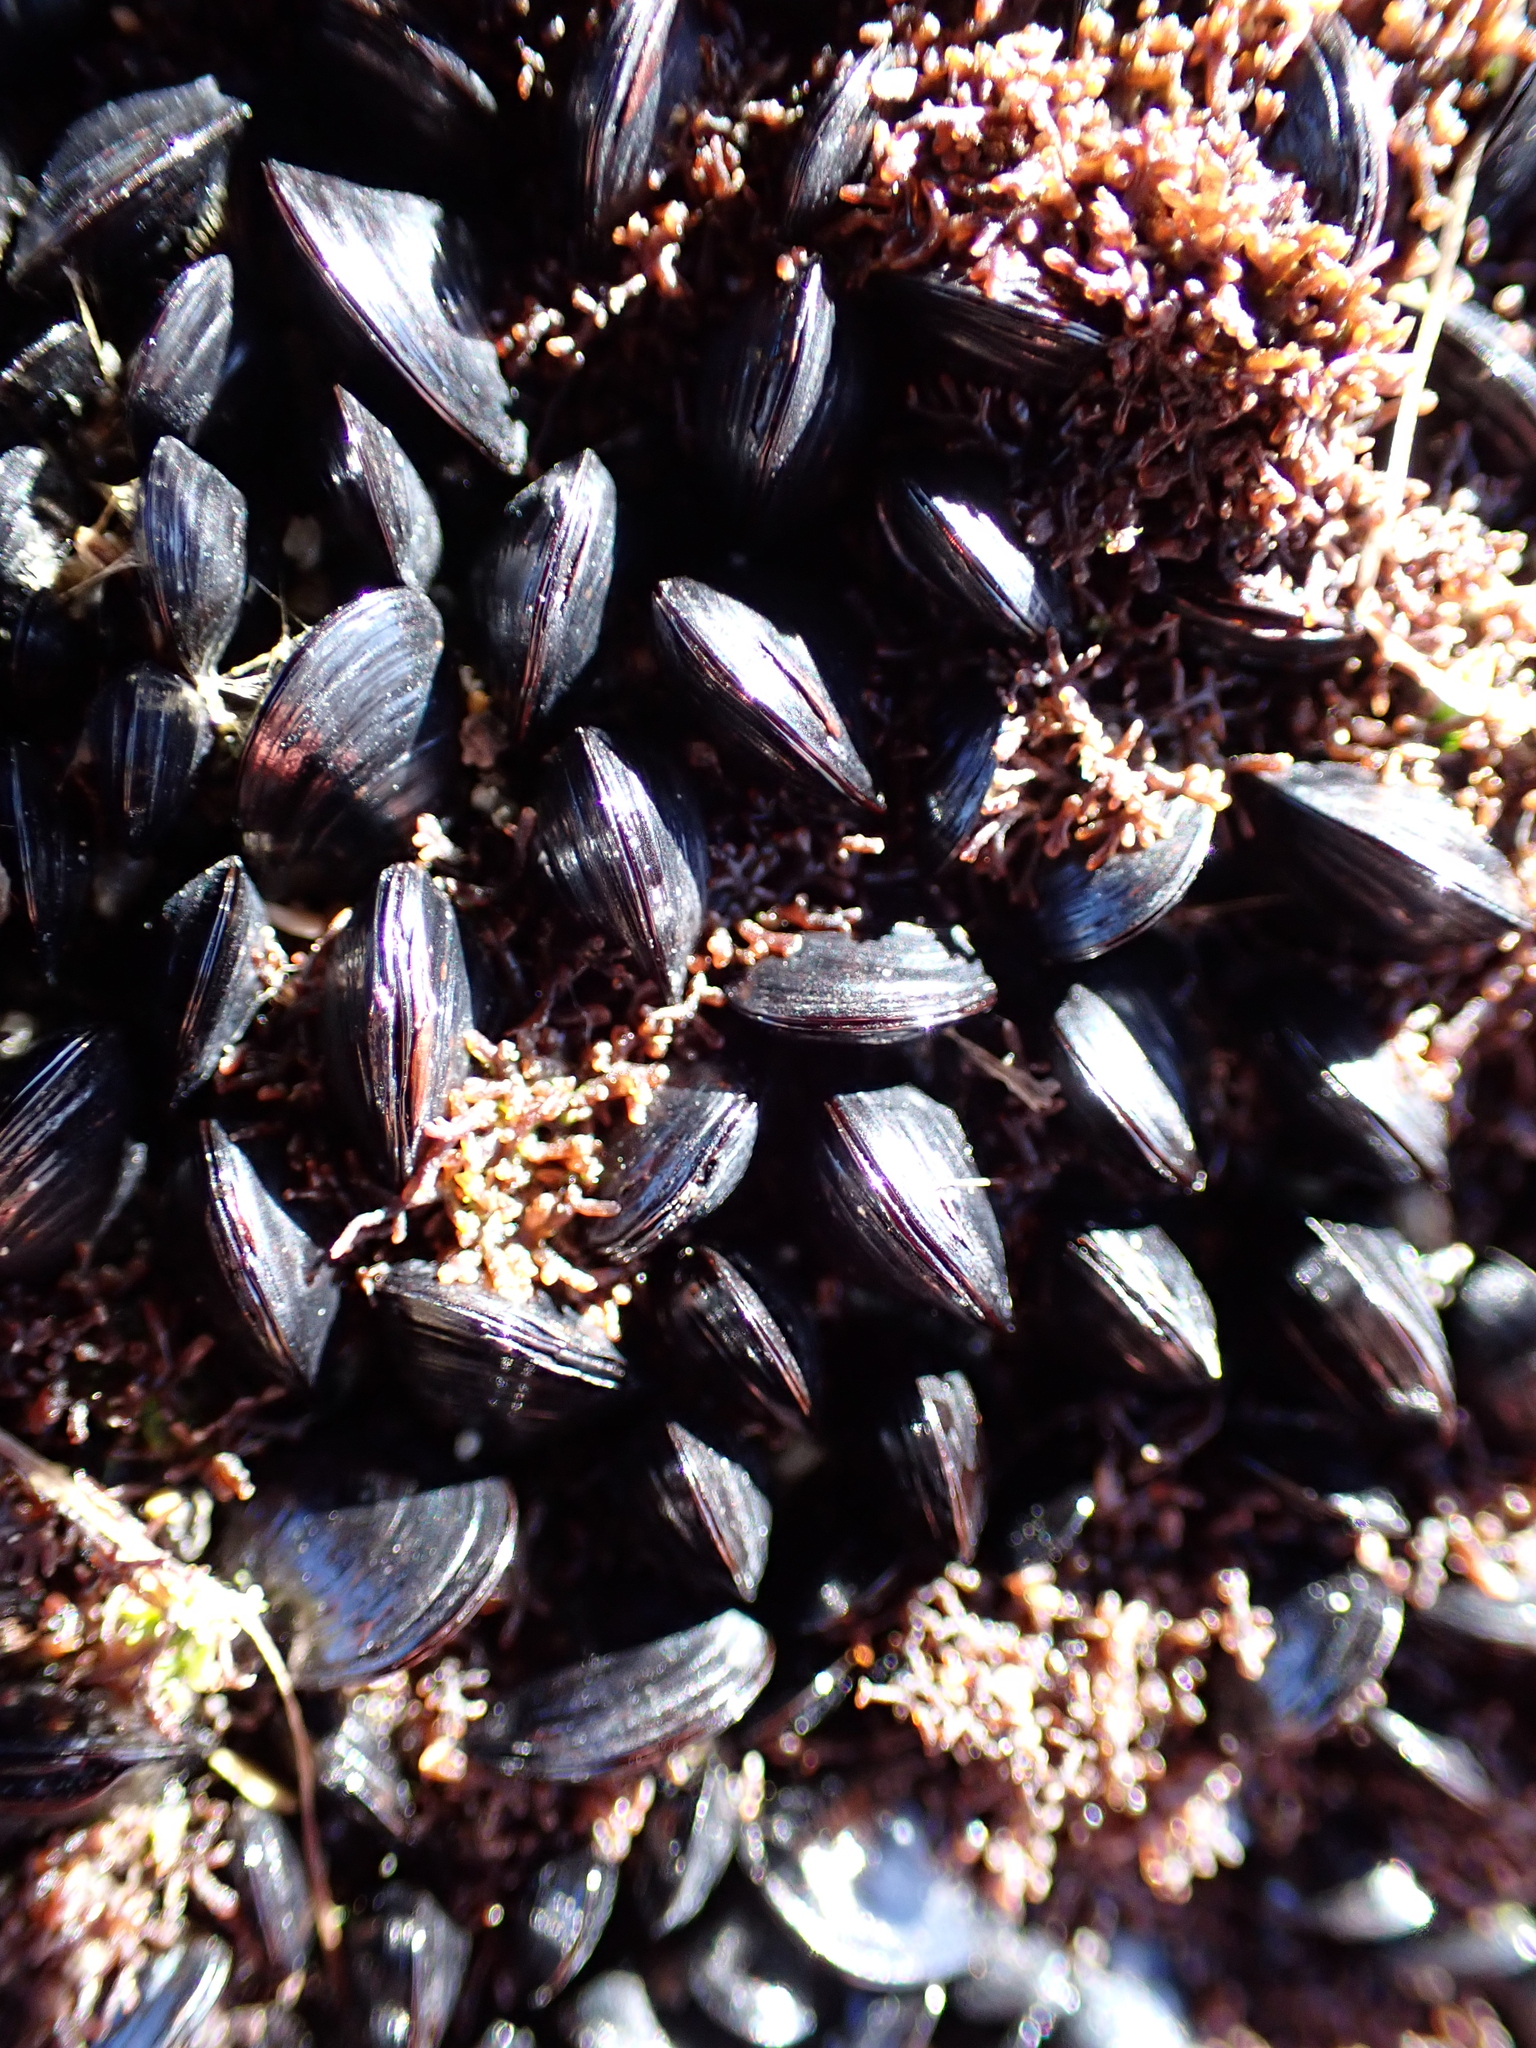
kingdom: Animalia
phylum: Mollusca
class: Bivalvia
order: Mytilida
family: Mytilidae
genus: Xenostrobus
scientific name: Xenostrobus neozelanicus
